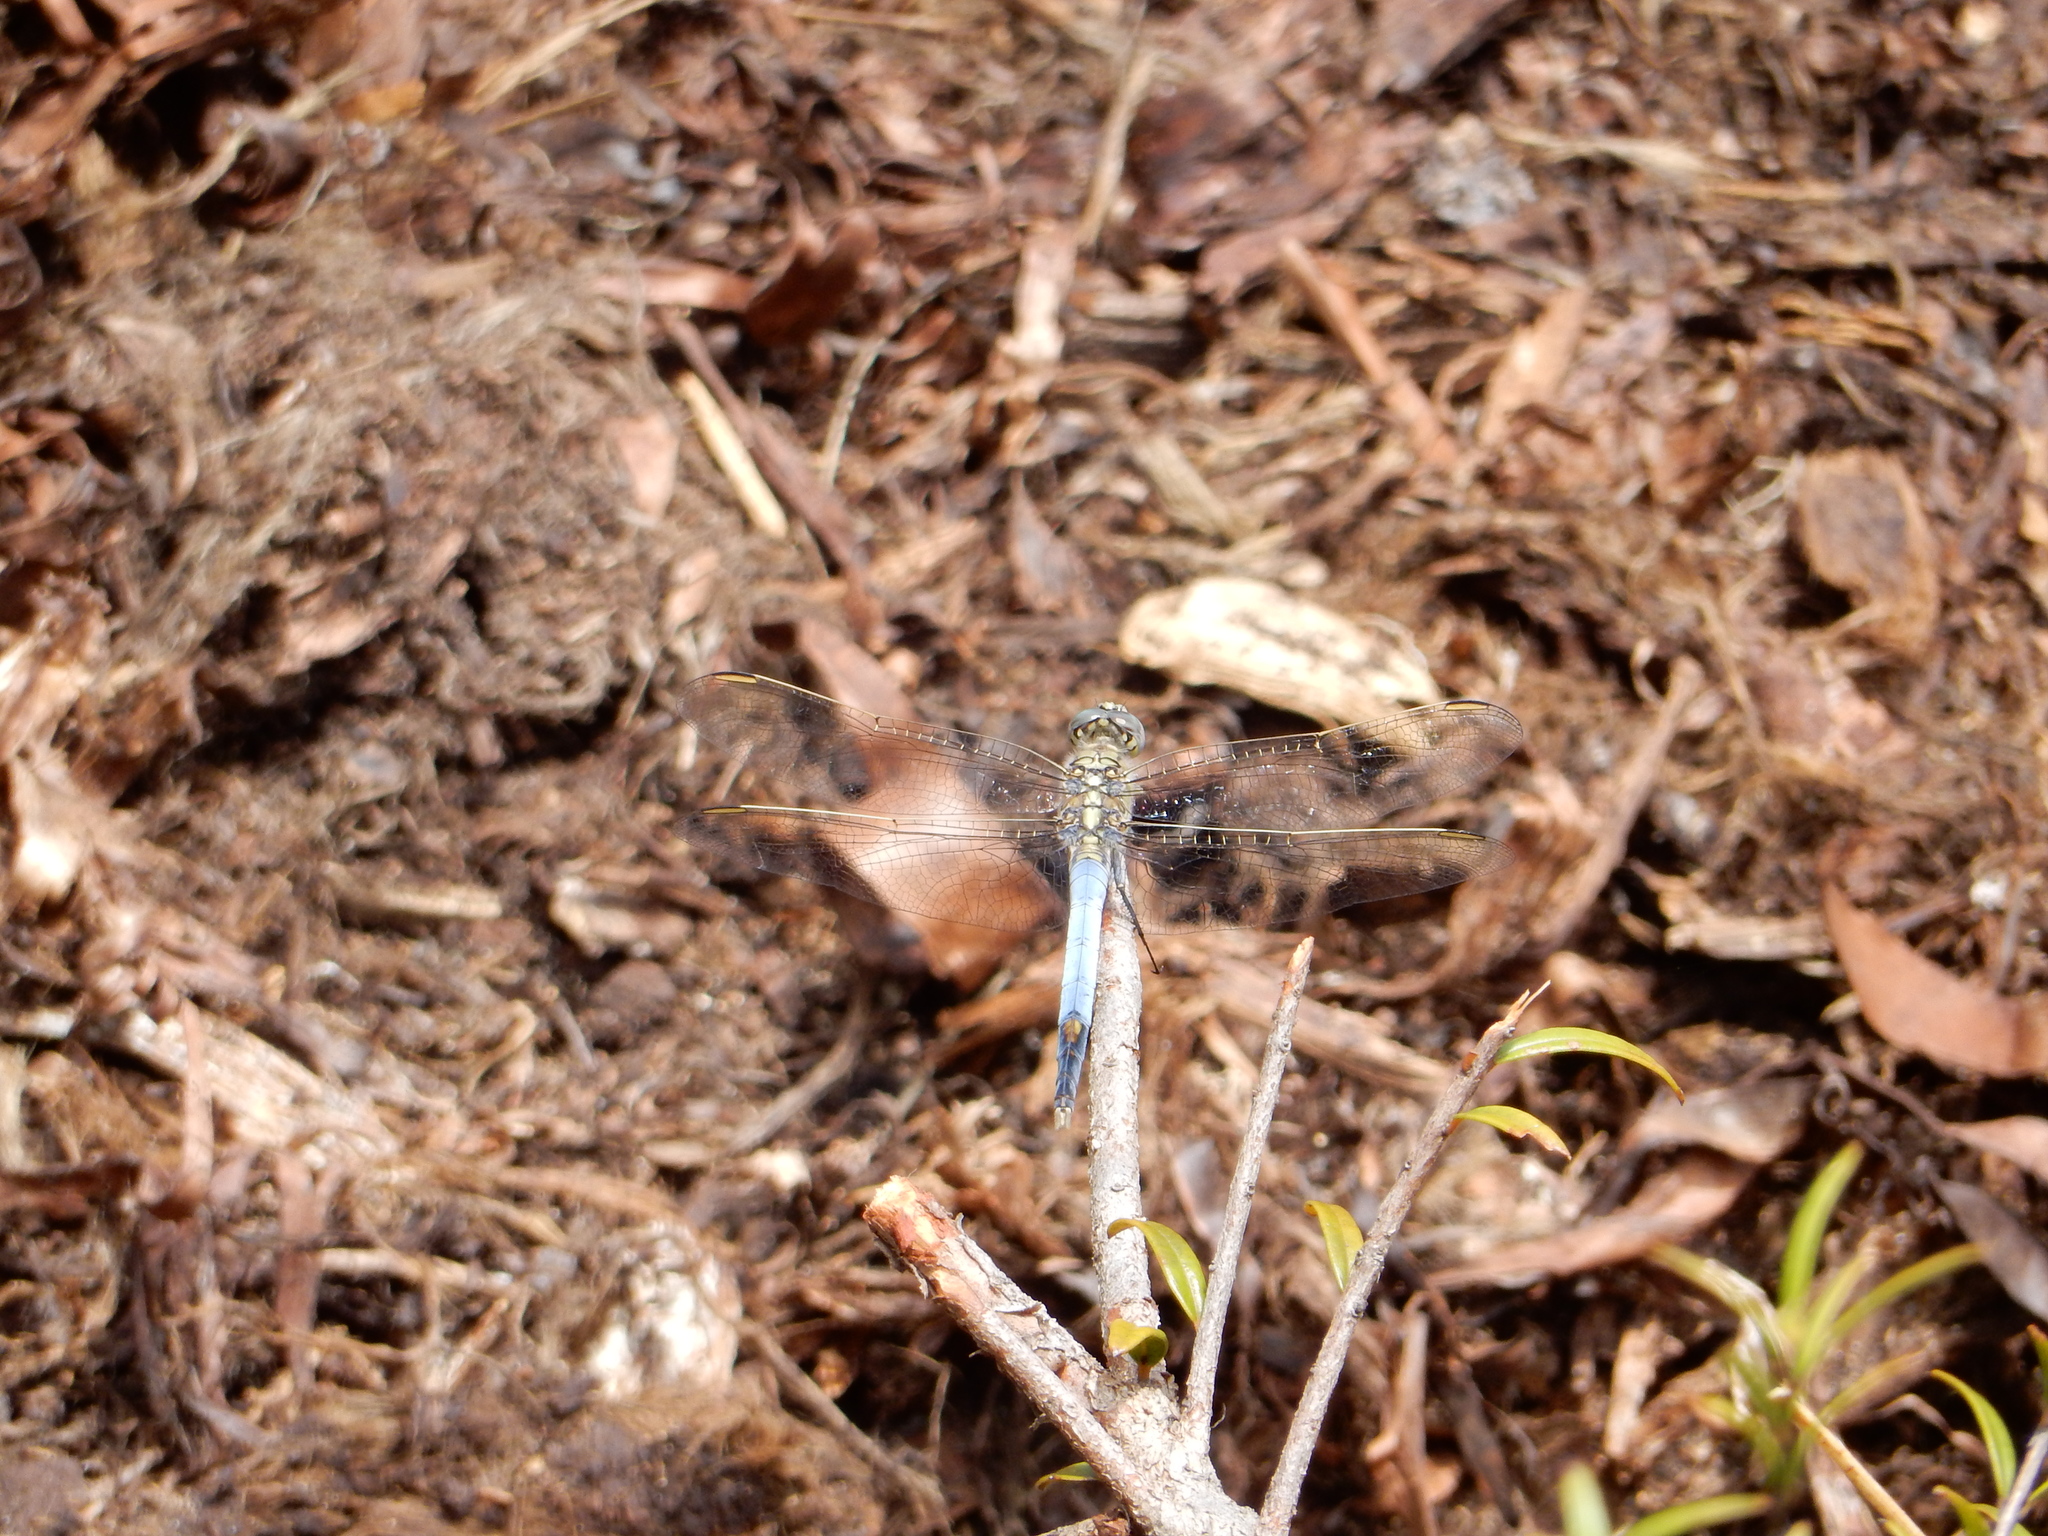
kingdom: Animalia
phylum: Arthropoda
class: Insecta
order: Odonata
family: Libellulidae
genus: Orthetrum
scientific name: Orthetrum caledonicum
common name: Blue skimmer
